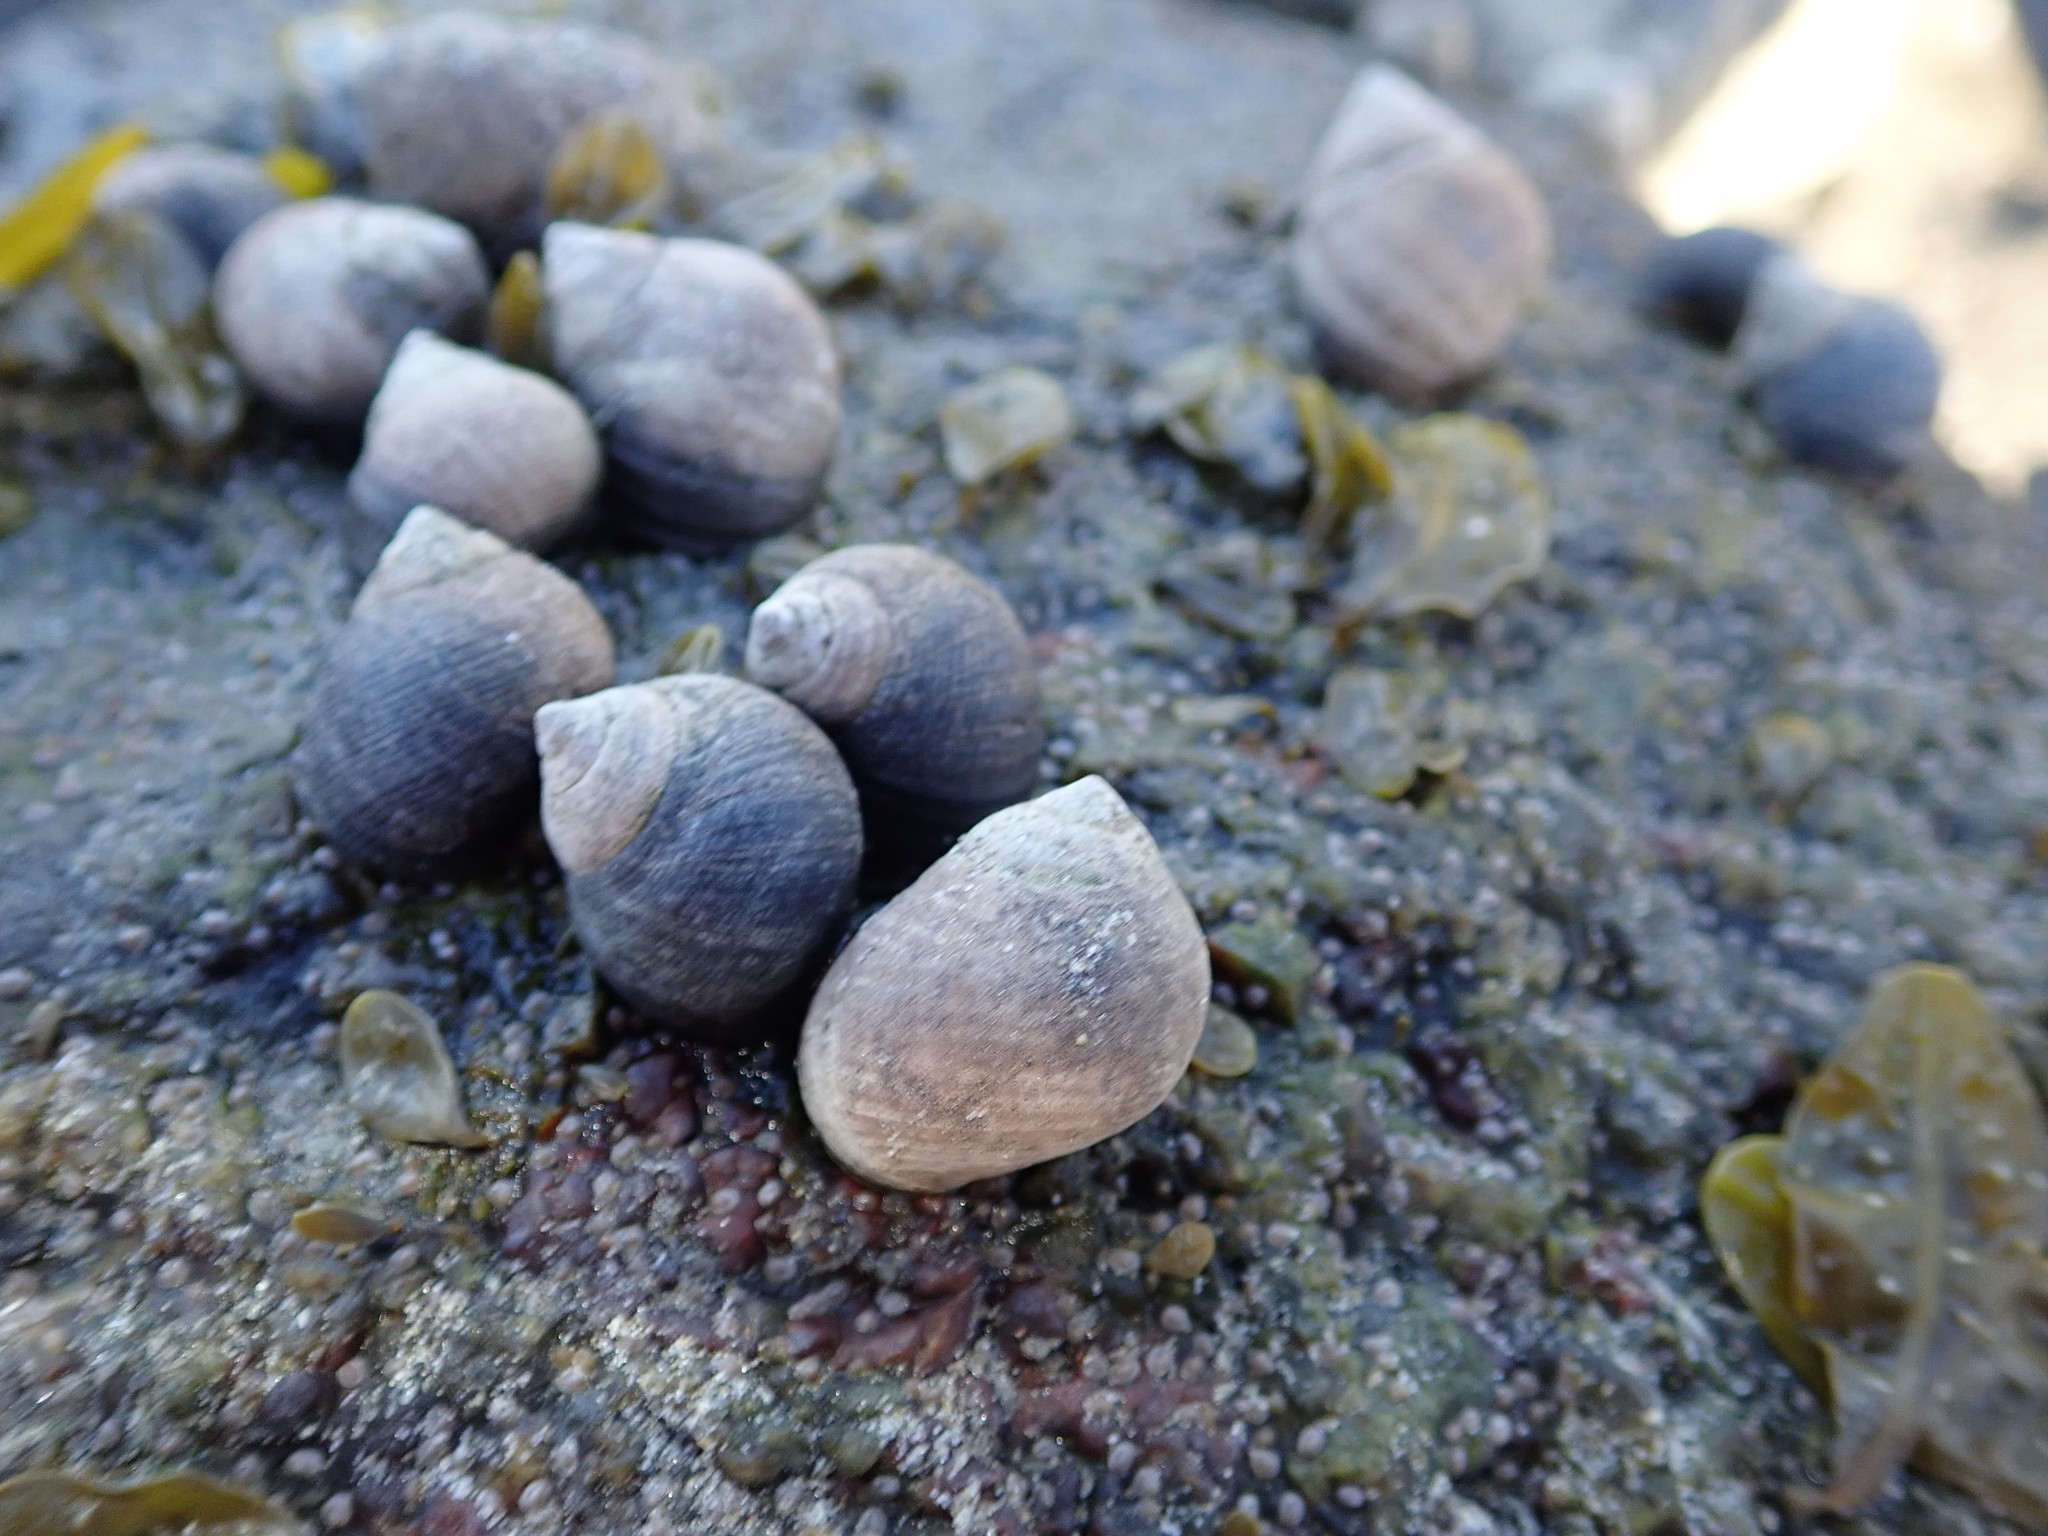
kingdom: Animalia
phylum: Mollusca
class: Gastropoda
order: Littorinimorpha
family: Littorinidae
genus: Littorina
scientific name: Littorina littorea
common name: Common periwinkle
